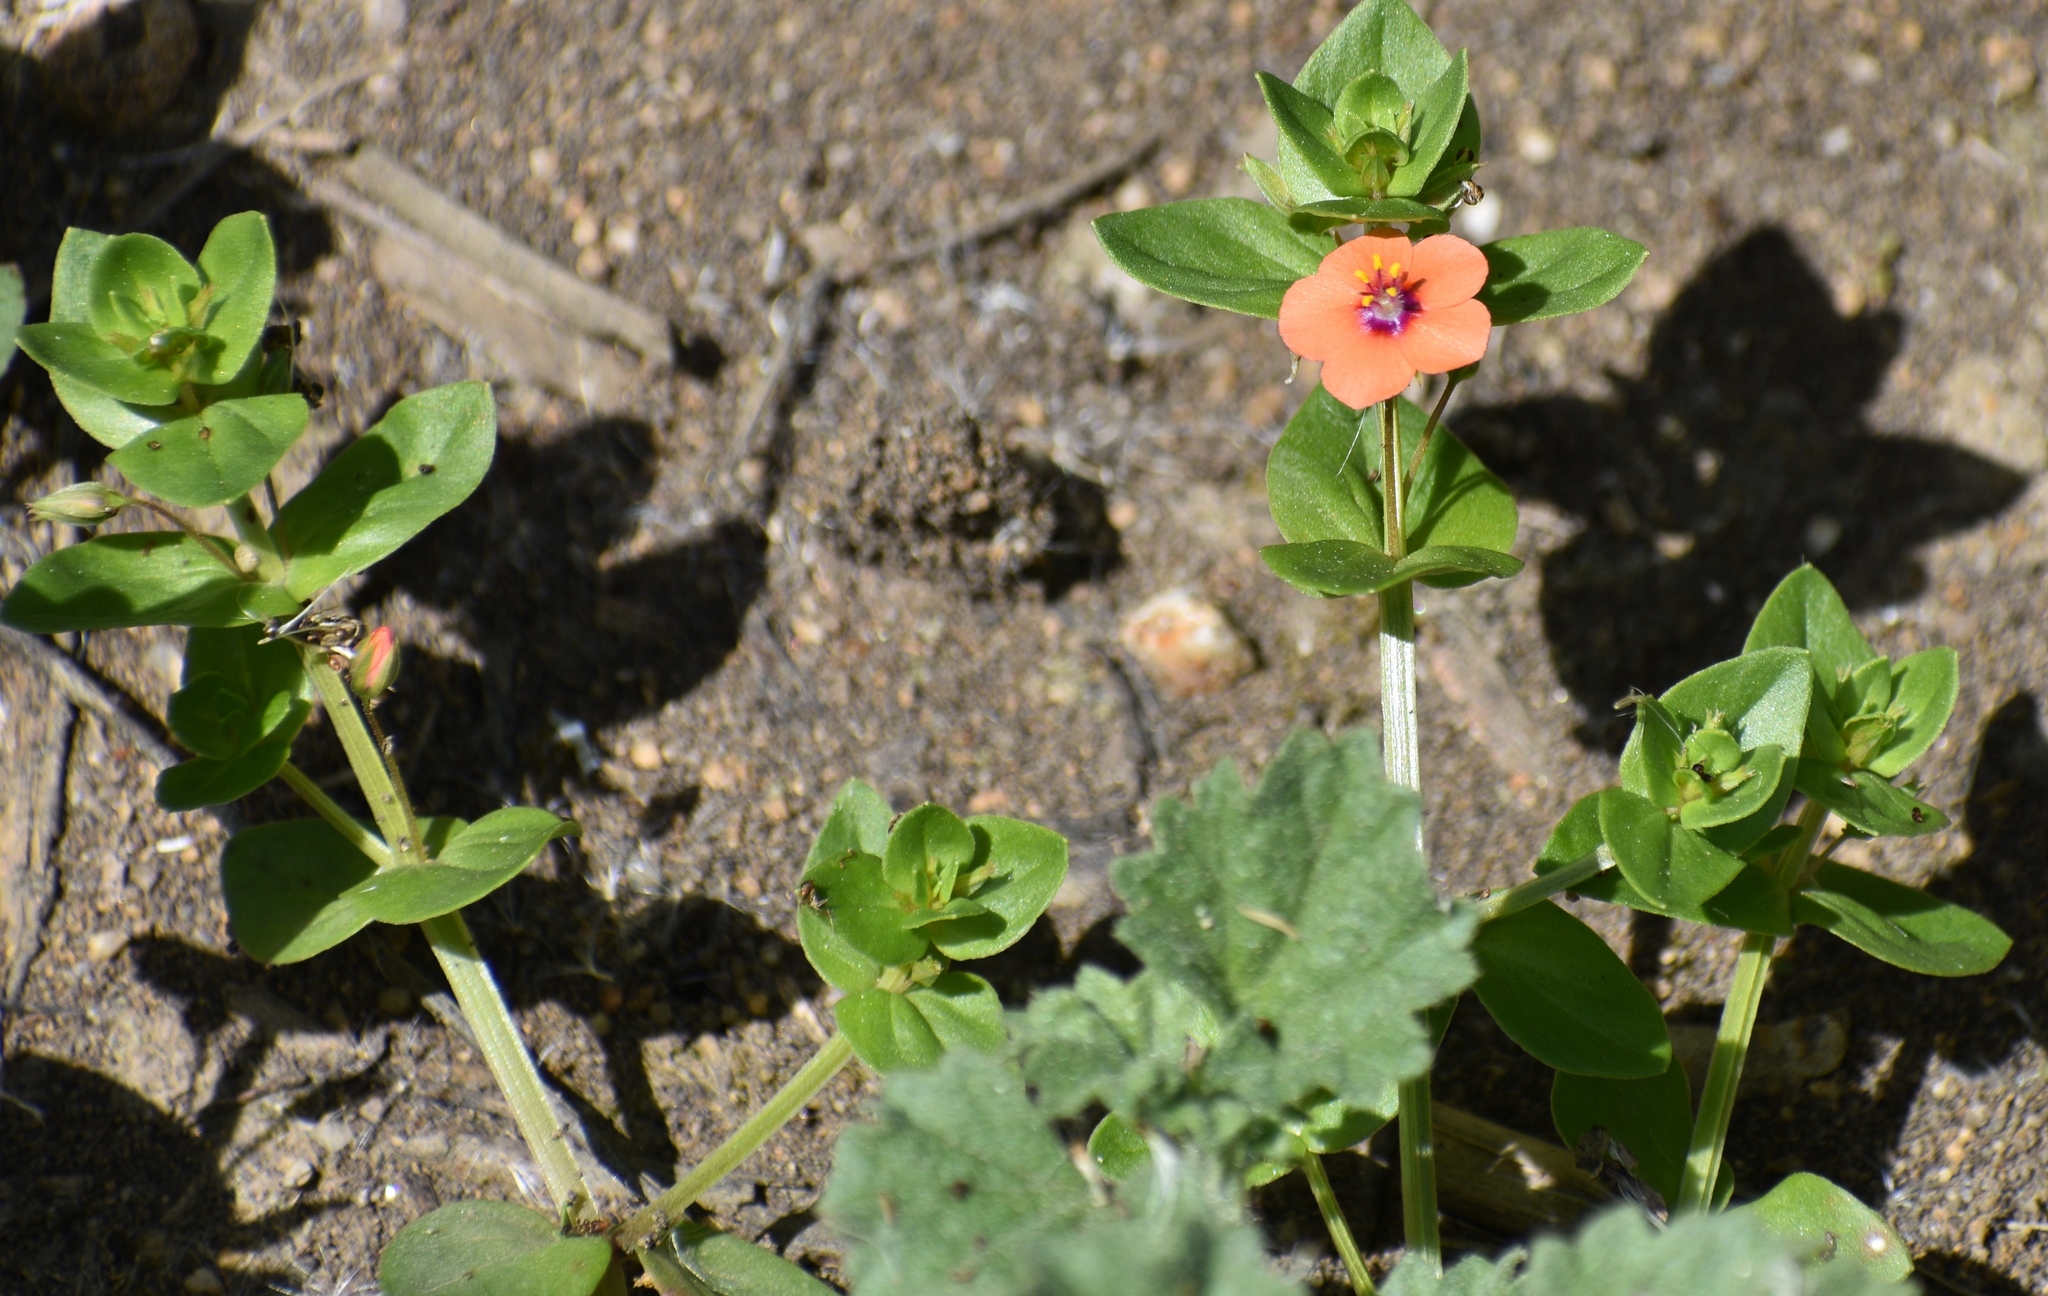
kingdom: Plantae
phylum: Tracheophyta
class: Magnoliopsida
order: Ericales
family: Primulaceae
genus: Lysimachia
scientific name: Lysimachia arvensis
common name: Scarlet pimpernel
